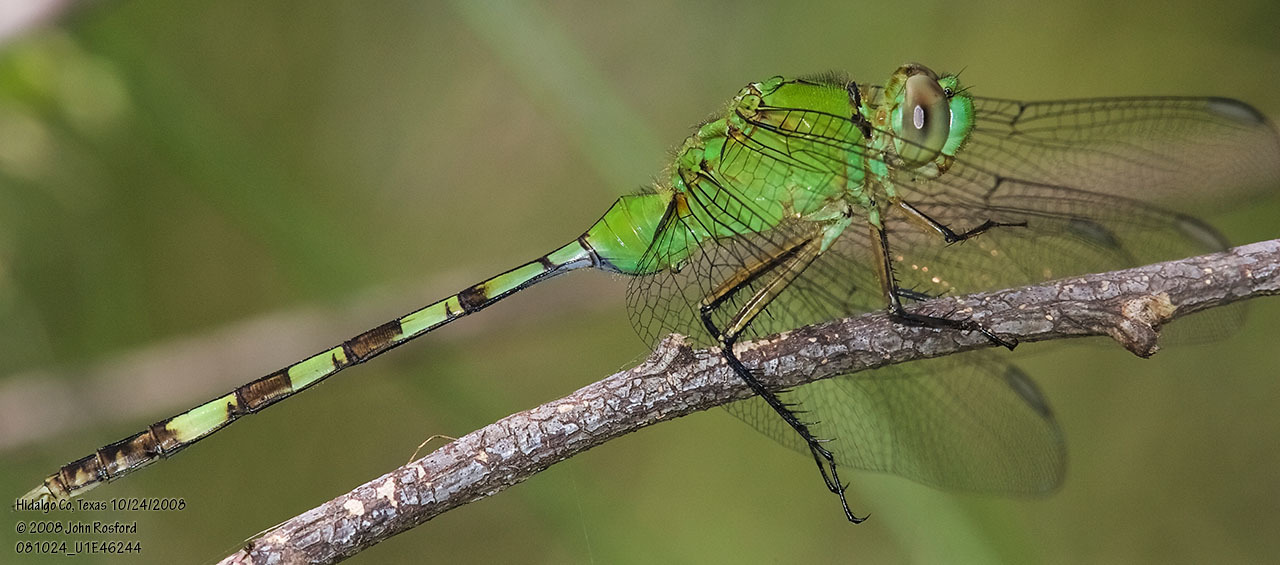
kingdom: Animalia
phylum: Arthropoda
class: Insecta
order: Odonata
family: Libellulidae
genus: Erythemis
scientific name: Erythemis vesiculosa
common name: Great pondhawk
